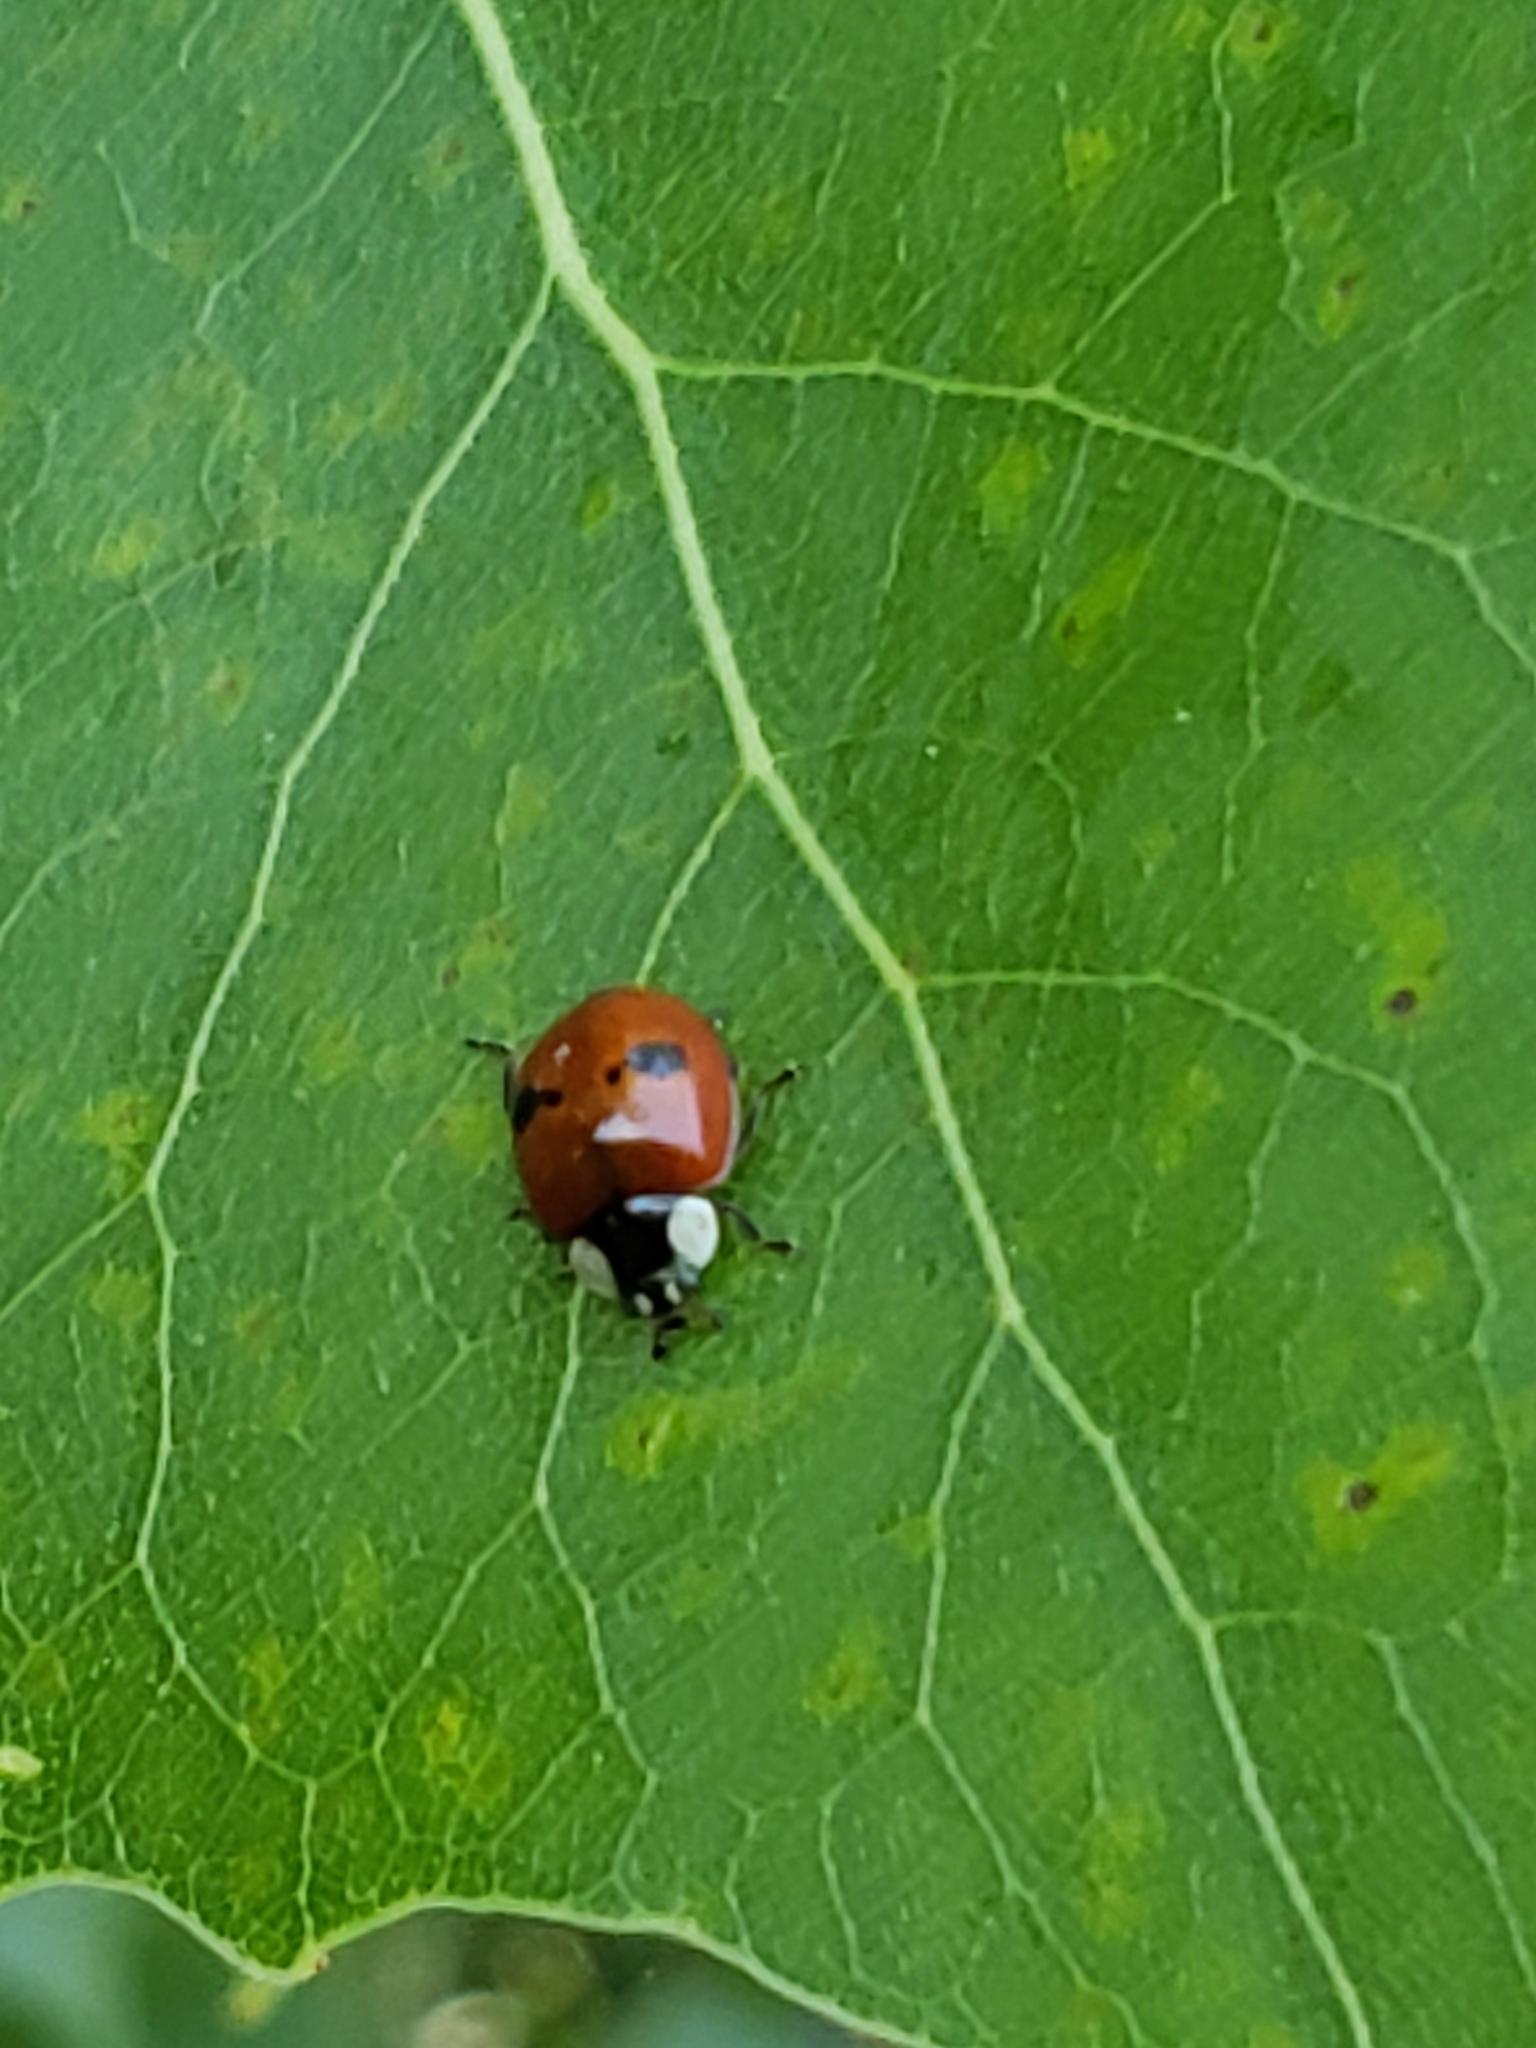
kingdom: Animalia
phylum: Arthropoda
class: Insecta
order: Coleoptera
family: Coccinellidae
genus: Adalia
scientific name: Adalia bipunctata
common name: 2-spot ladybird
